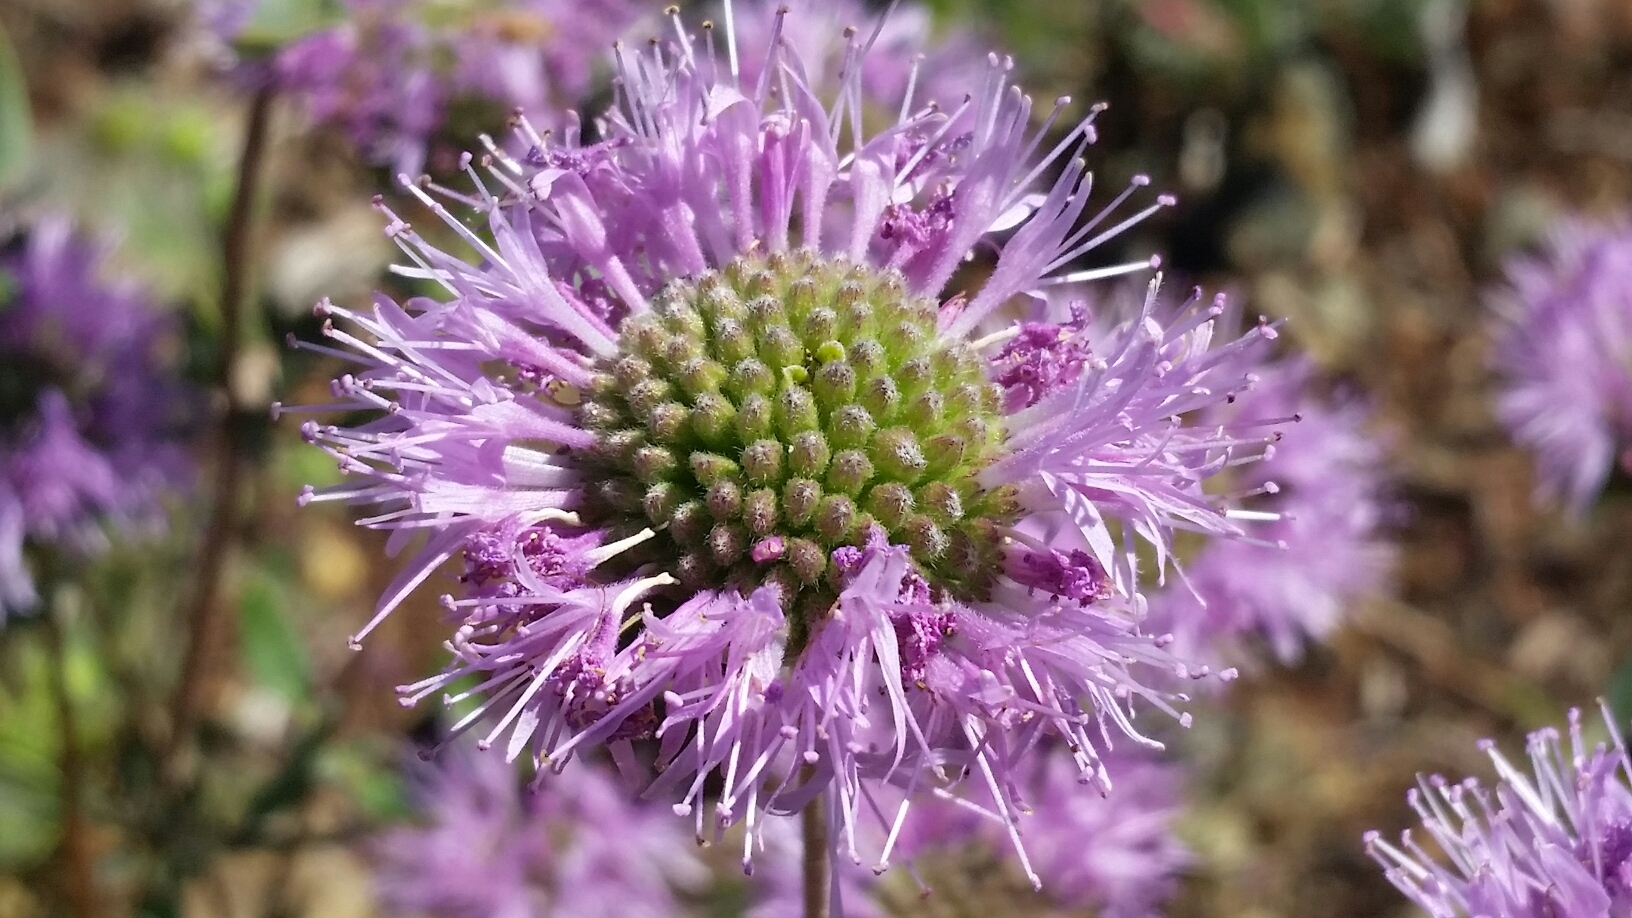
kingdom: Plantae
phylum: Tracheophyta
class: Magnoliopsida
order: Lamiales
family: Lamiaceae
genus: Monardella
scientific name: Monardella odoratissima
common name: Pacific monardella
